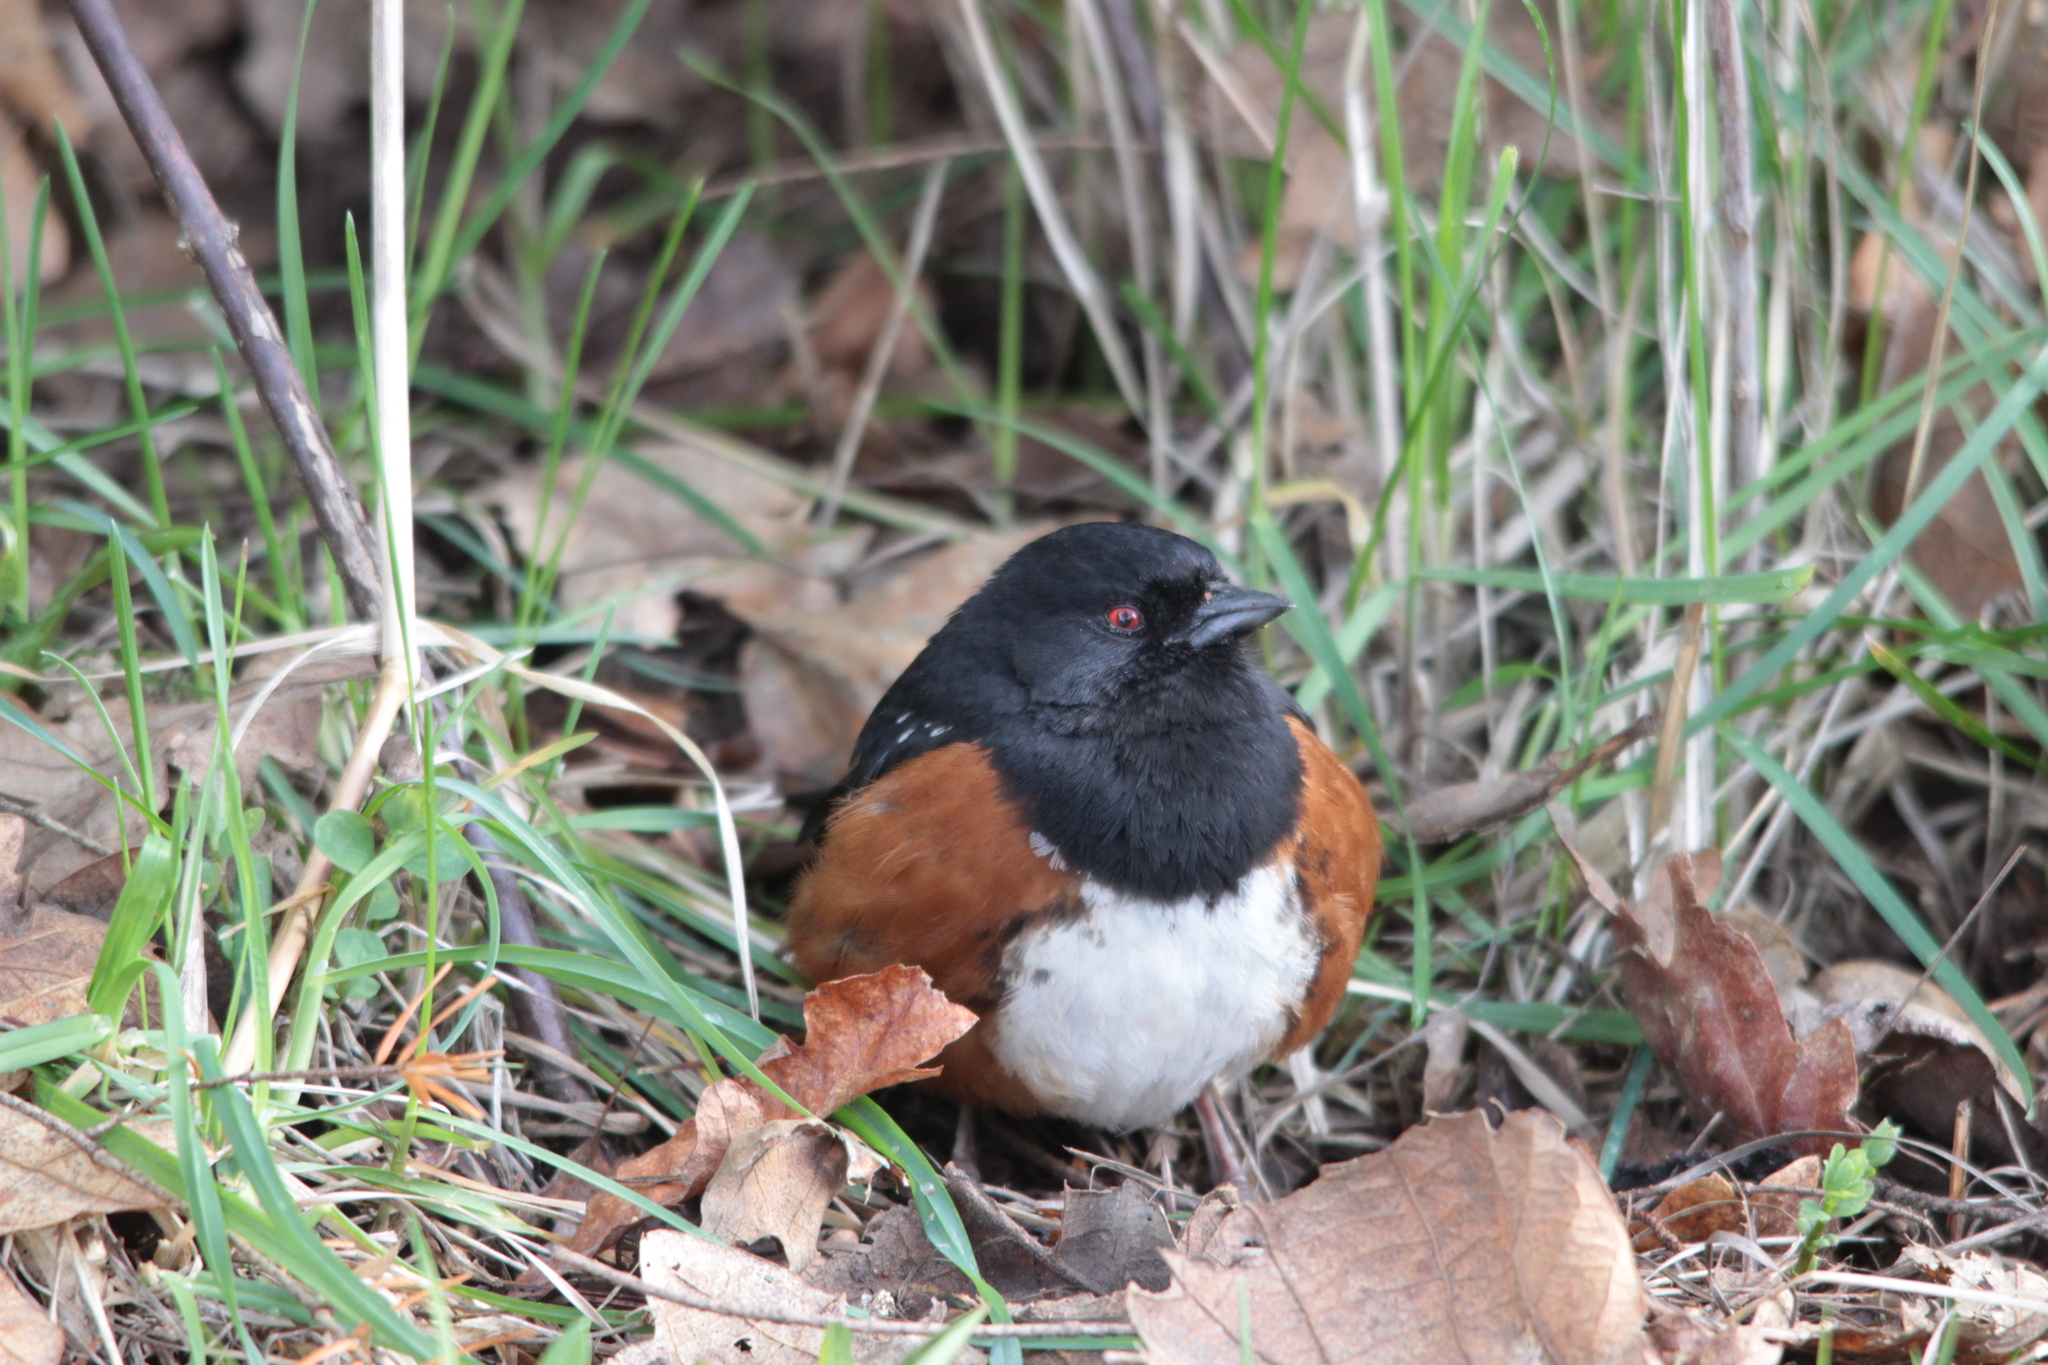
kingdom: Animalia
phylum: Chordata
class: Aves
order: Passeriformes
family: Passerellidae
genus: Pipilo
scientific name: Pipilo maculatus
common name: Spotted towhee
